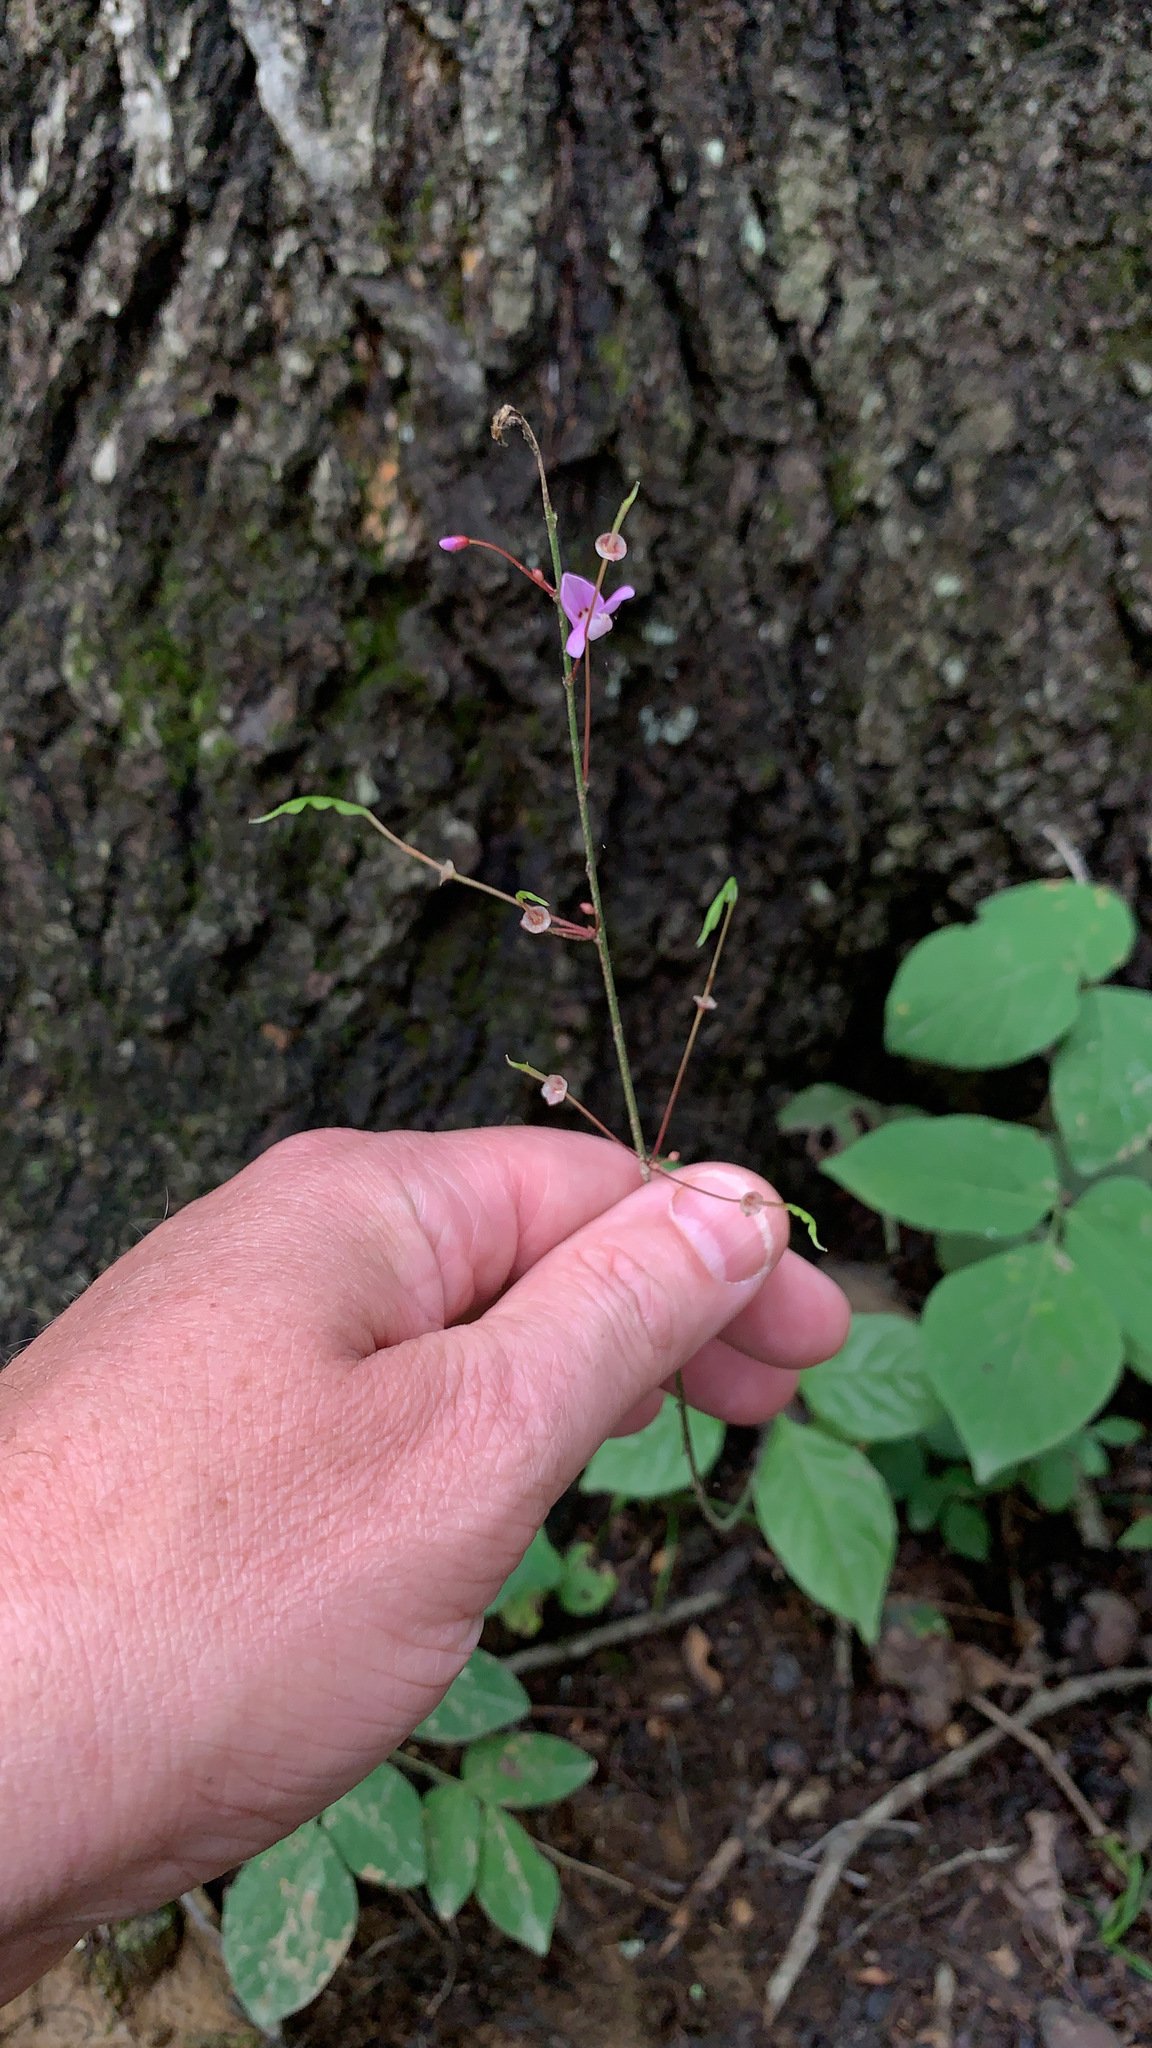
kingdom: Plantae
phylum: Tracheophyta
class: Magnoliopsida
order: Fabales
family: Fabaceae
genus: Hylodesmum
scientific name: Hylodesmum nudiflorum
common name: Bare-stemmed tick-trefoil
